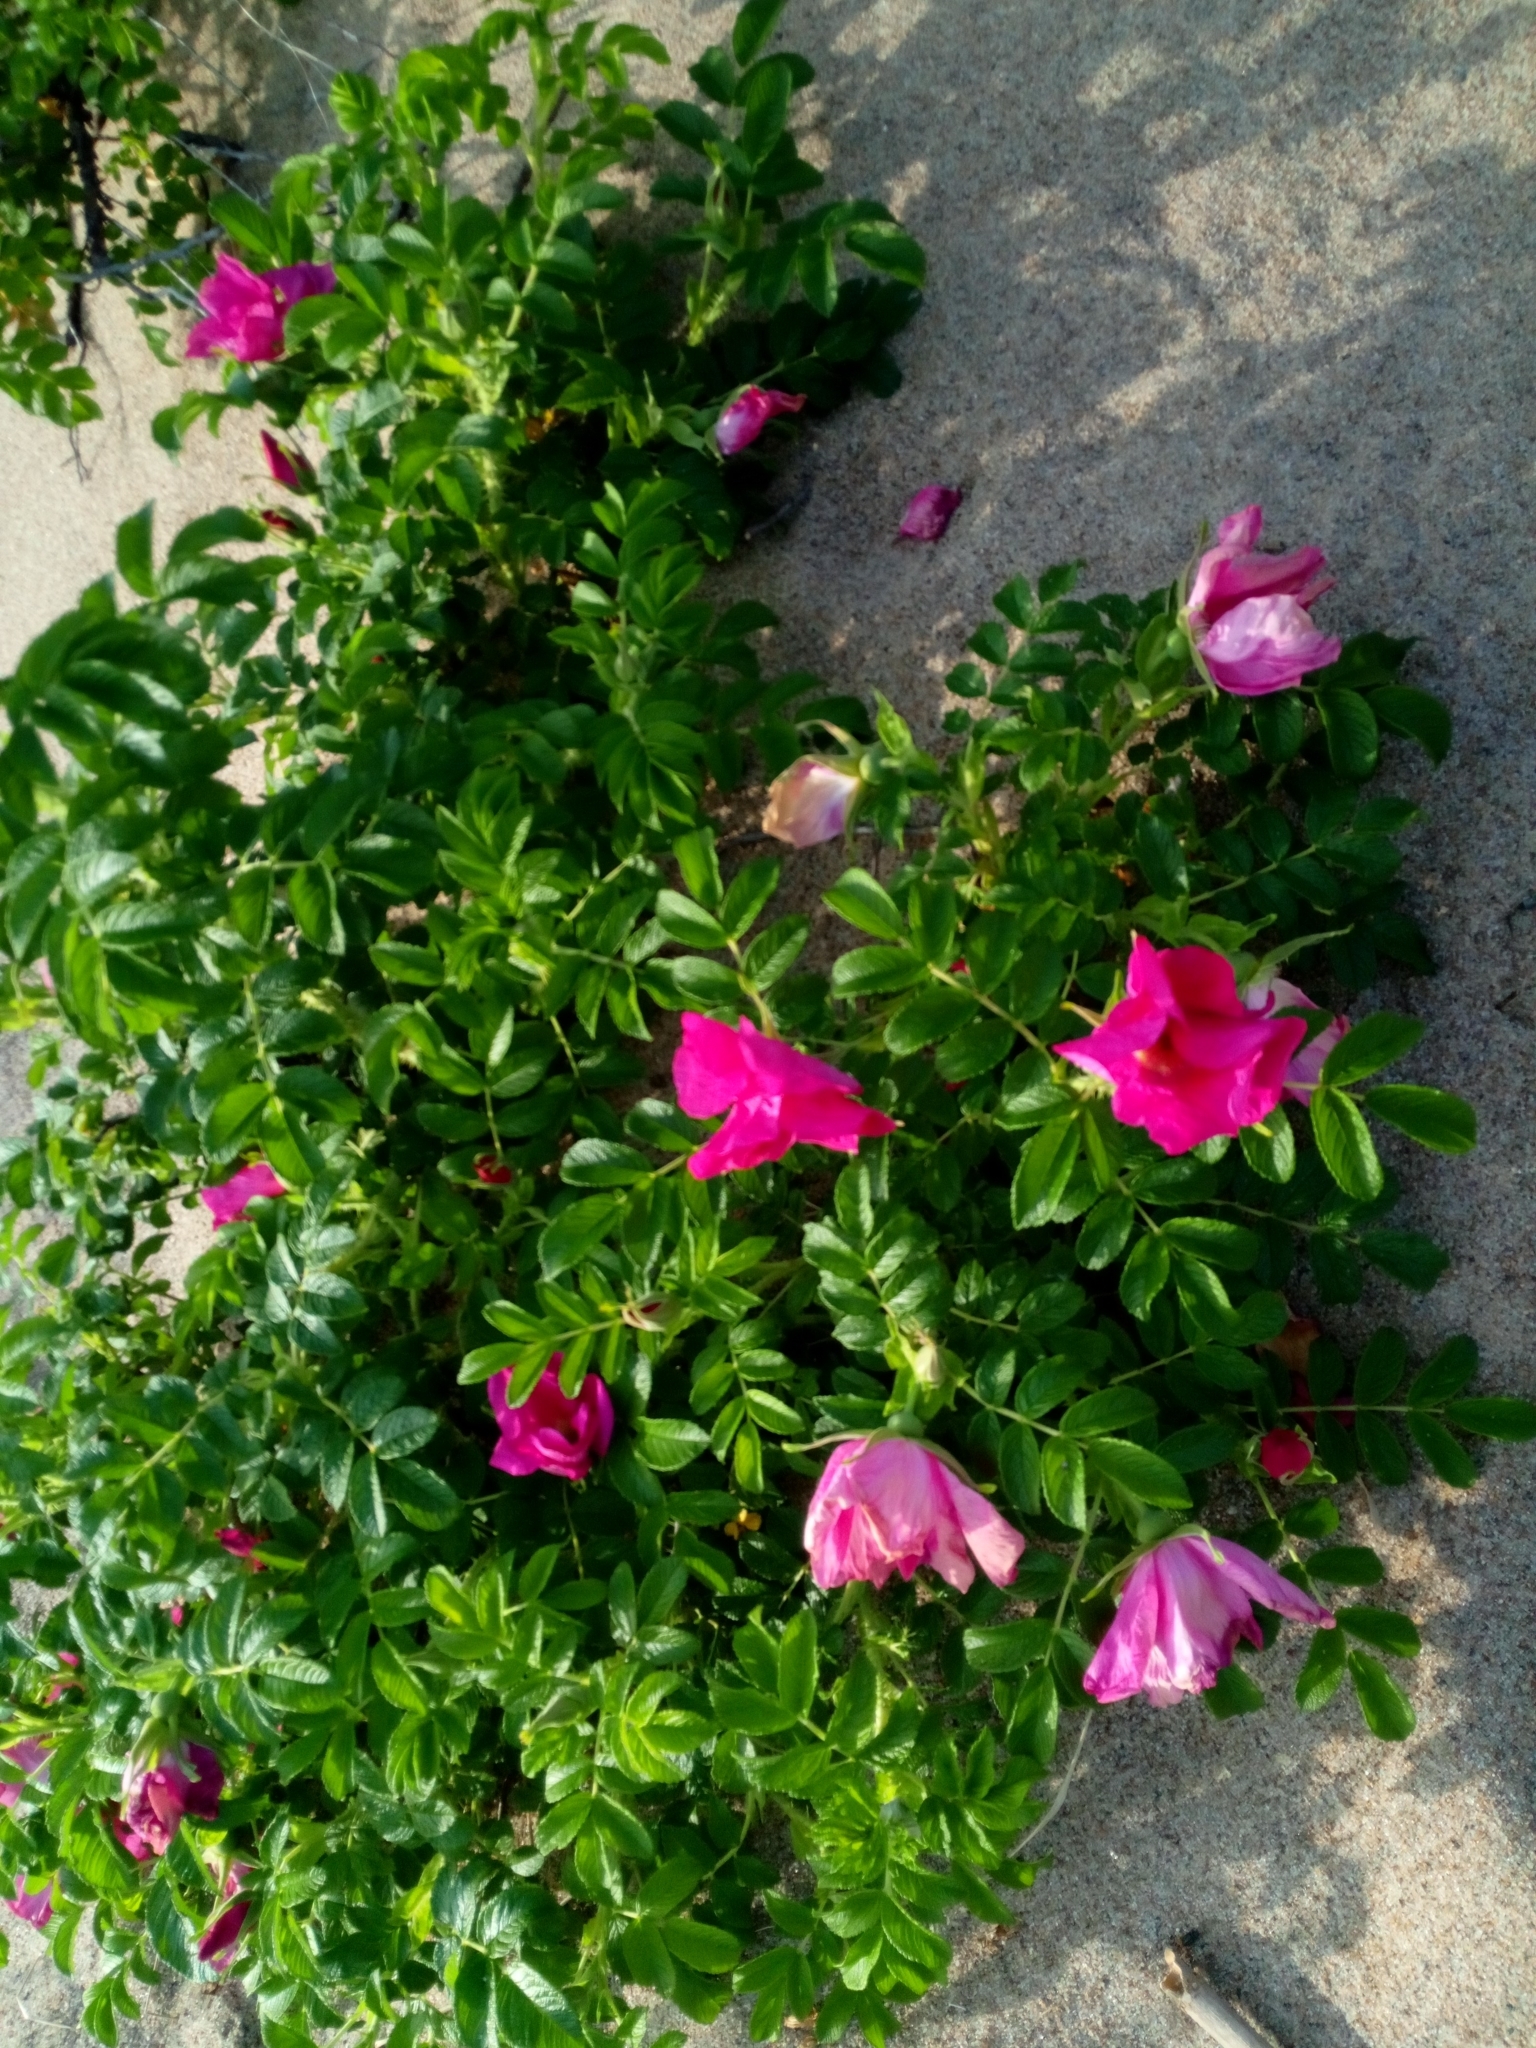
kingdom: Plantae
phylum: Tracheophyta
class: Magnoliopsida
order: Rosales
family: Rosaceae
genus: Rosa
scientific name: Rosa rugosa
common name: Japanese rose
